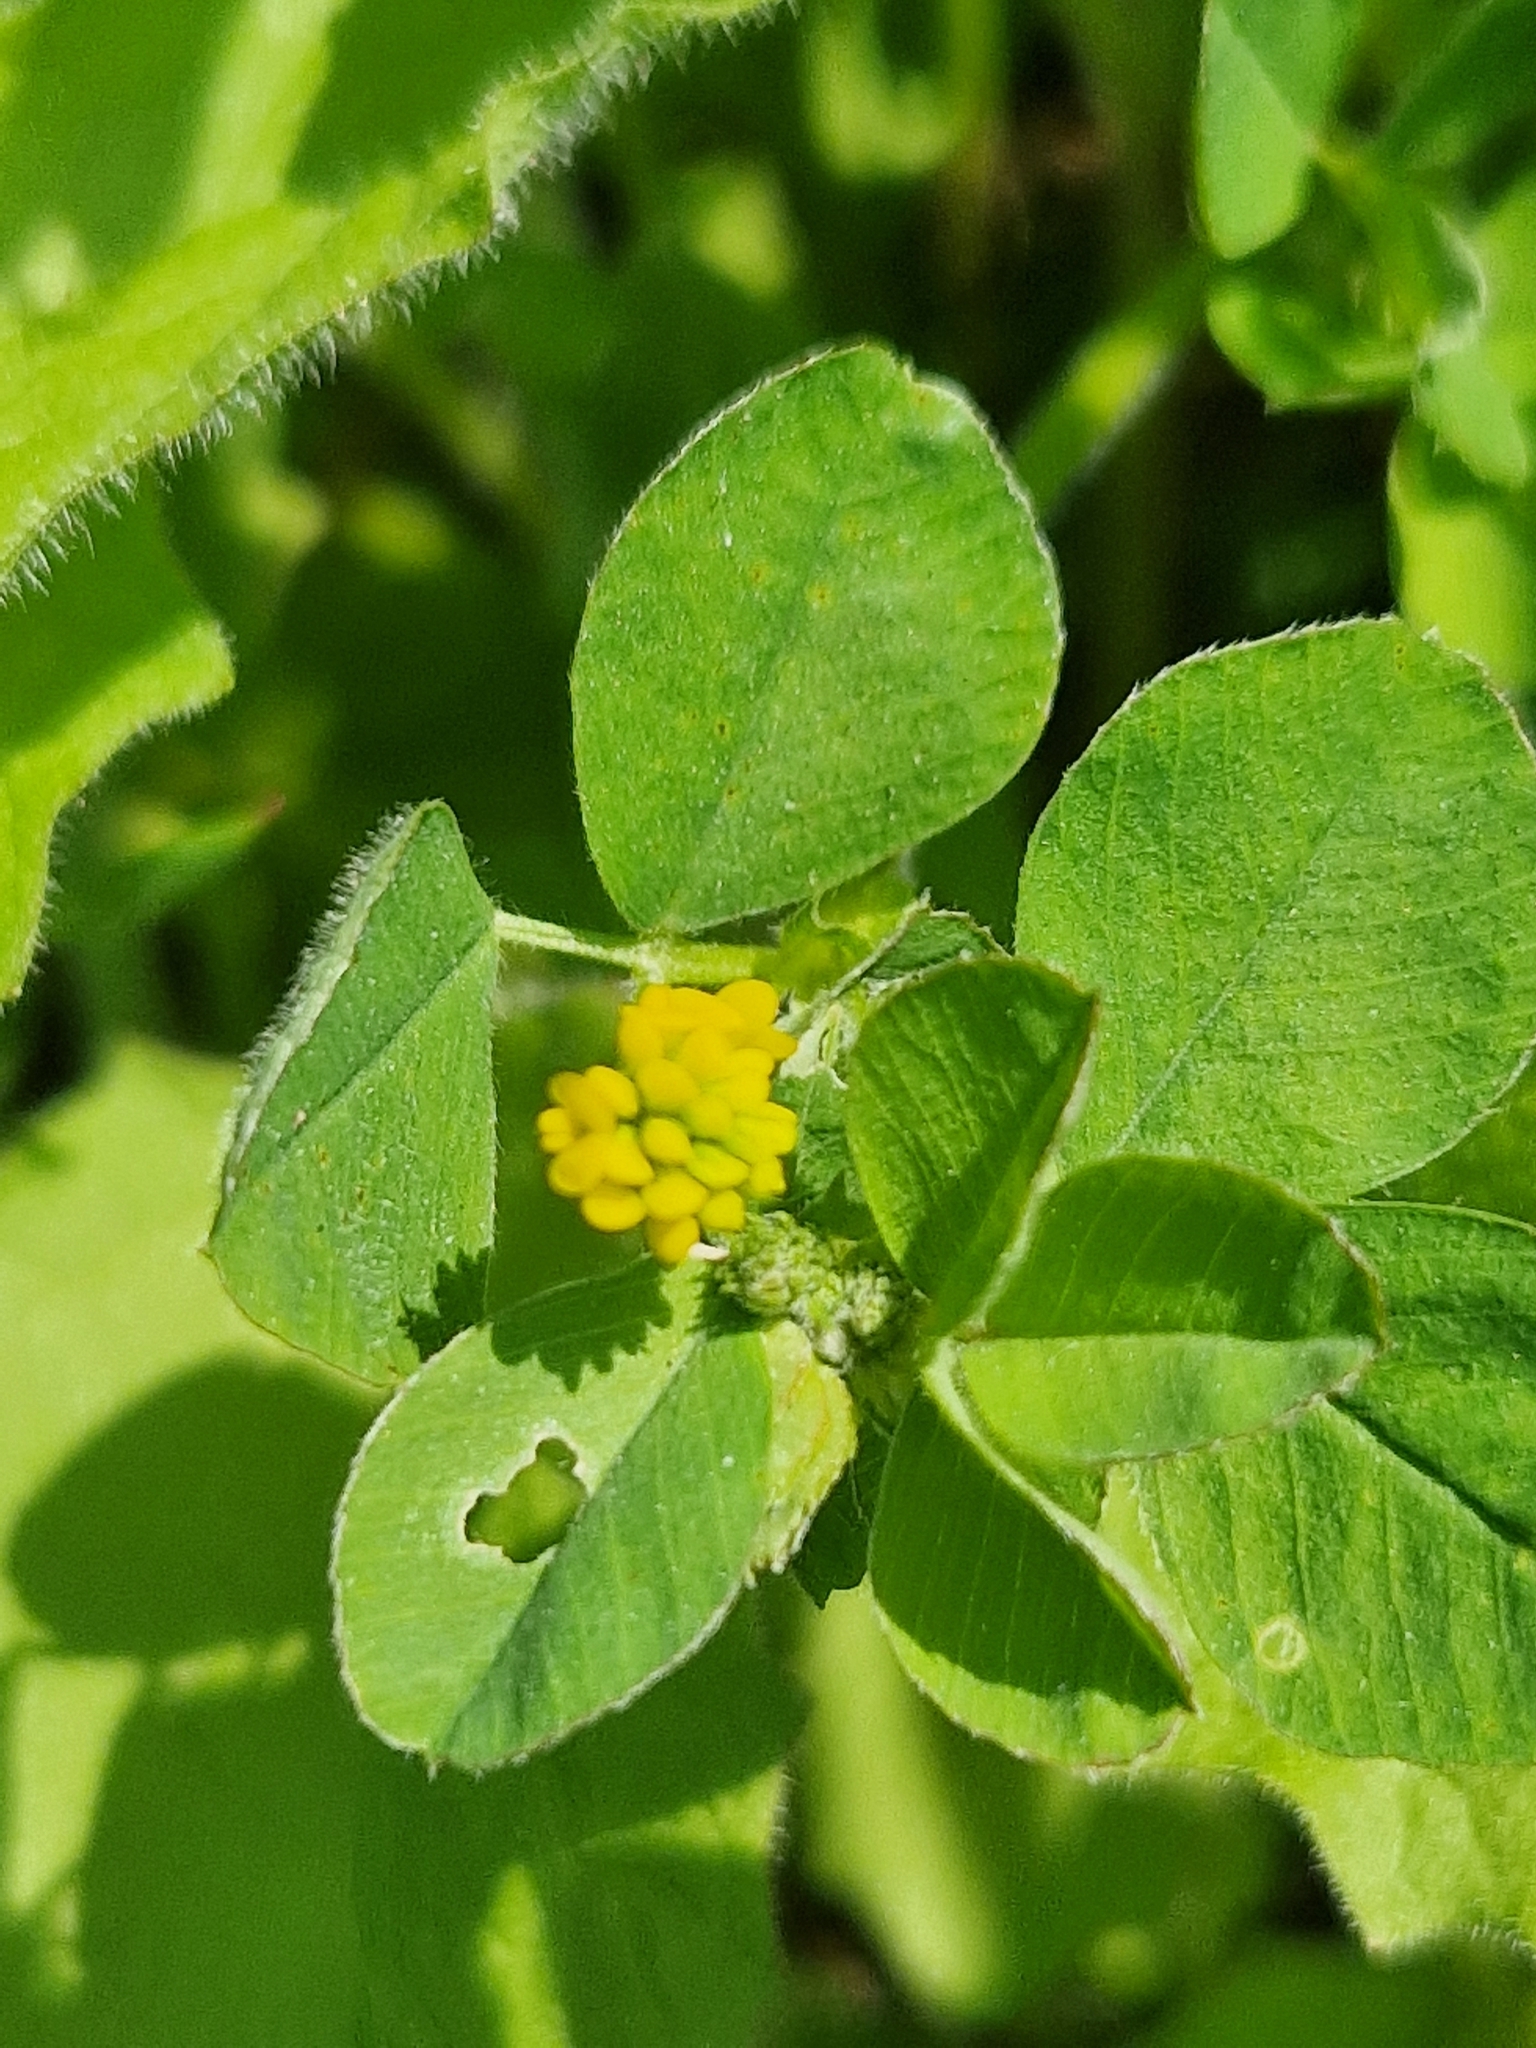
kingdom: Plantae
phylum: Tracheophyta
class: Magnoliopsida
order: Fabales
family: Fabaceae
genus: Medicago
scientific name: Medicago lupulina
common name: Black medick
